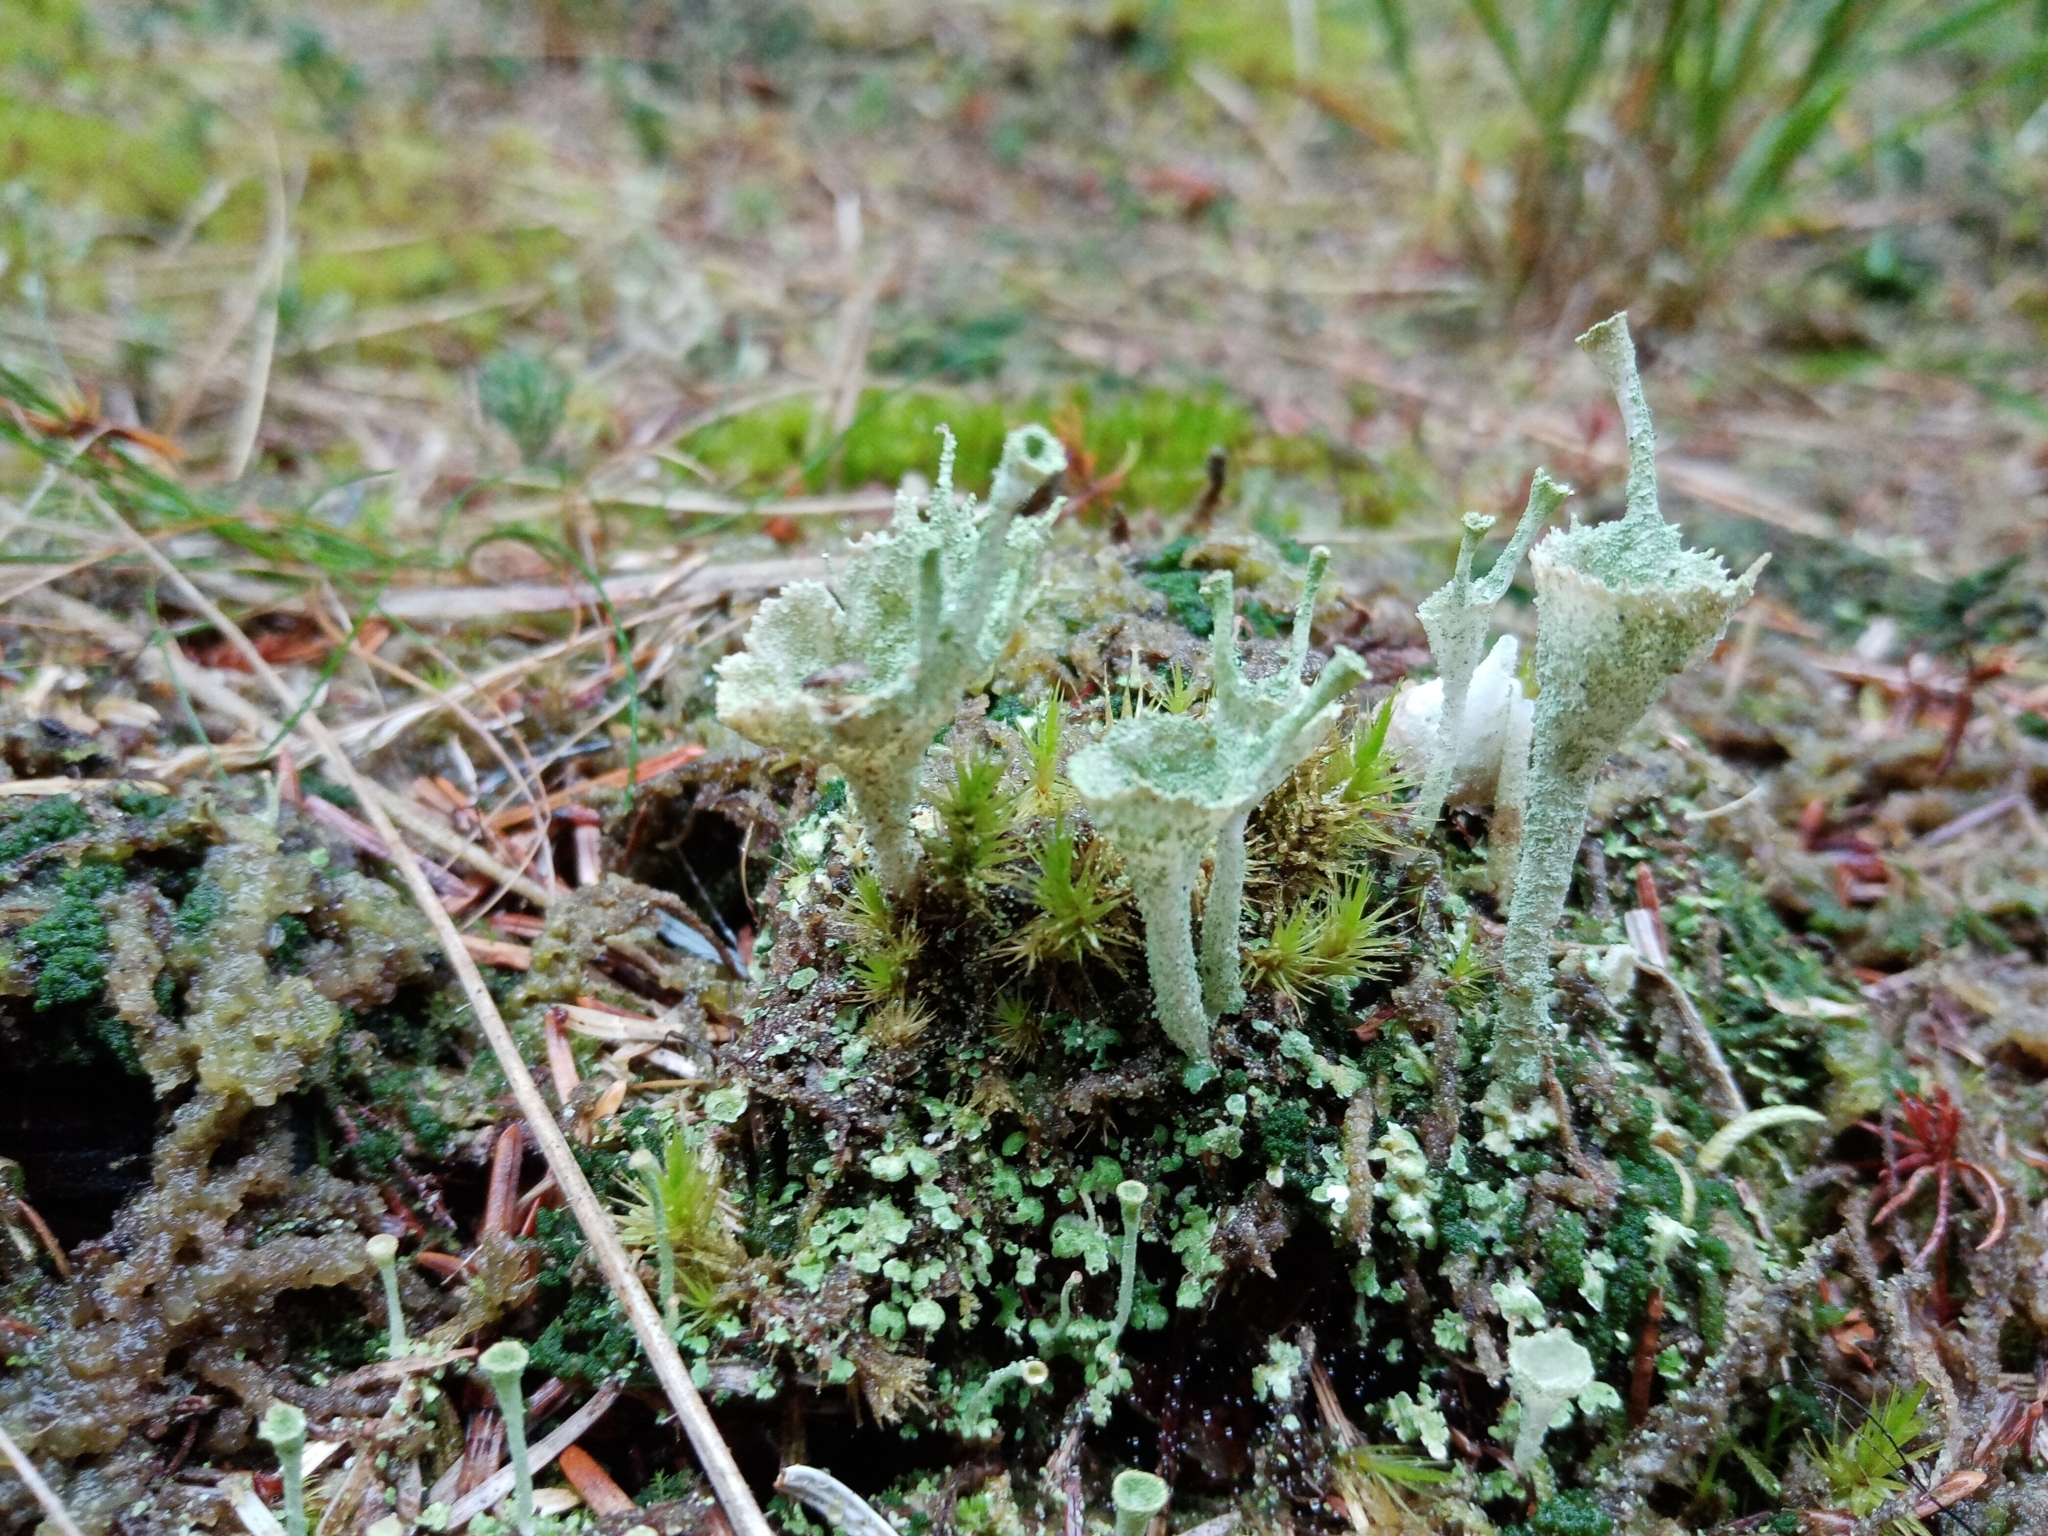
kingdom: Fungi
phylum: Ascomycota
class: Lecanoromycetes
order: Lecanorales
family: Cladoniaceae
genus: Cladonia
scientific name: Cladonia
